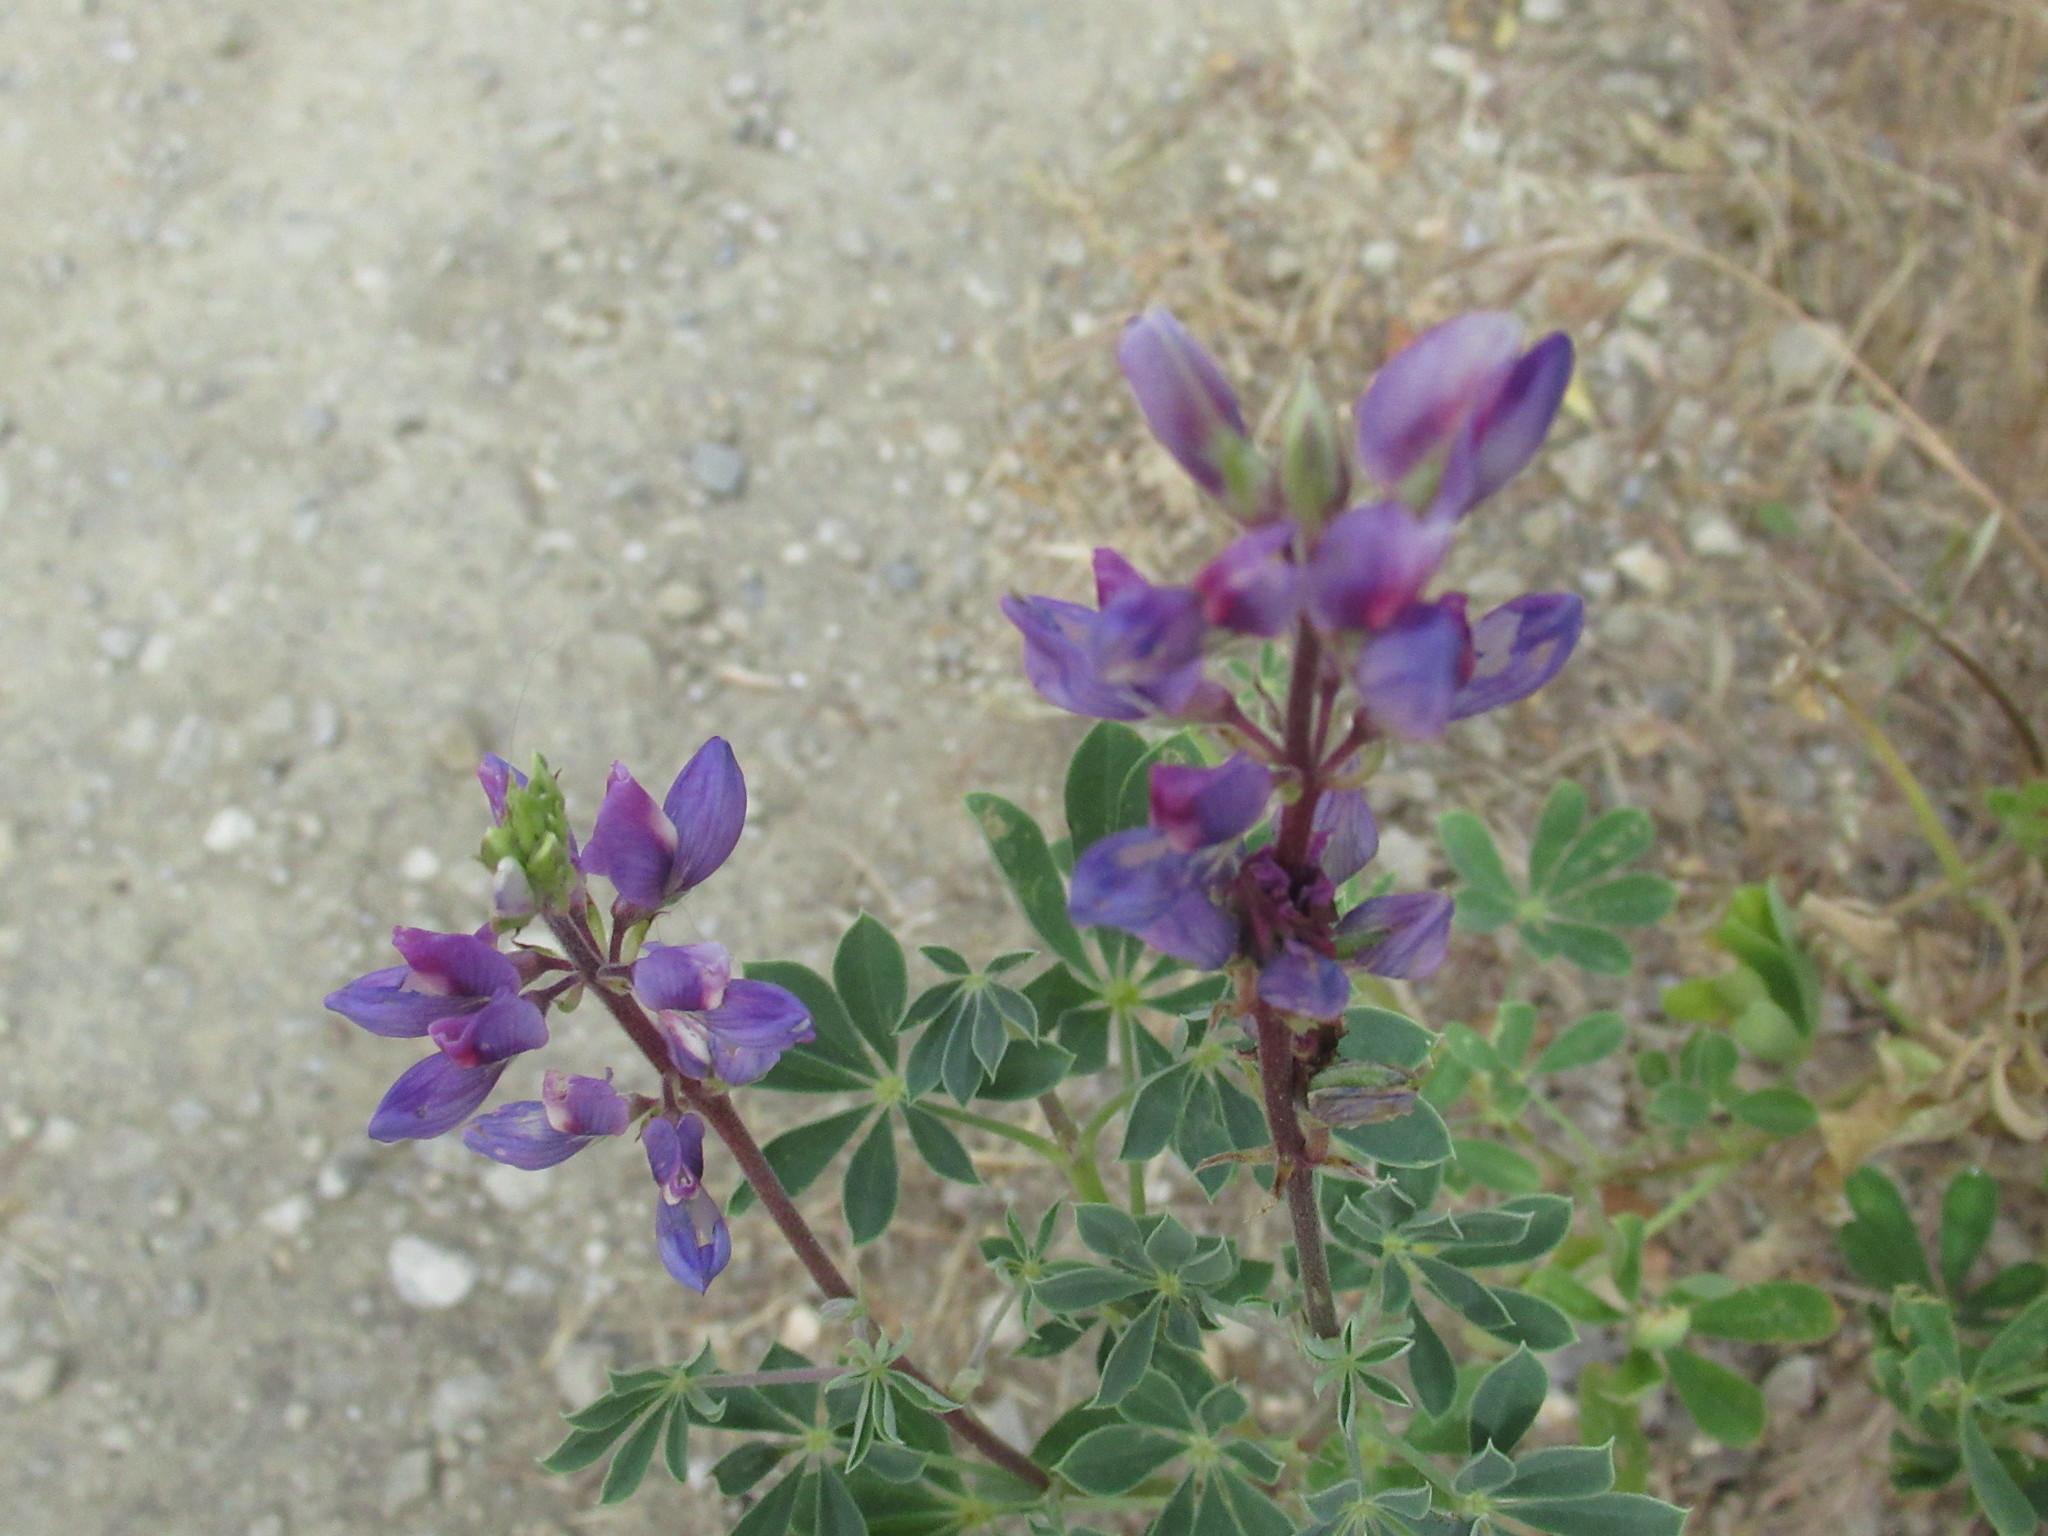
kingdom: Plantae
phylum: Tracheophyta
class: Magnoliopsida
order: Fabales
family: Fabaceae
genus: Lupinus
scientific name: Lupinus succulentus
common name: Arroyo lupine
